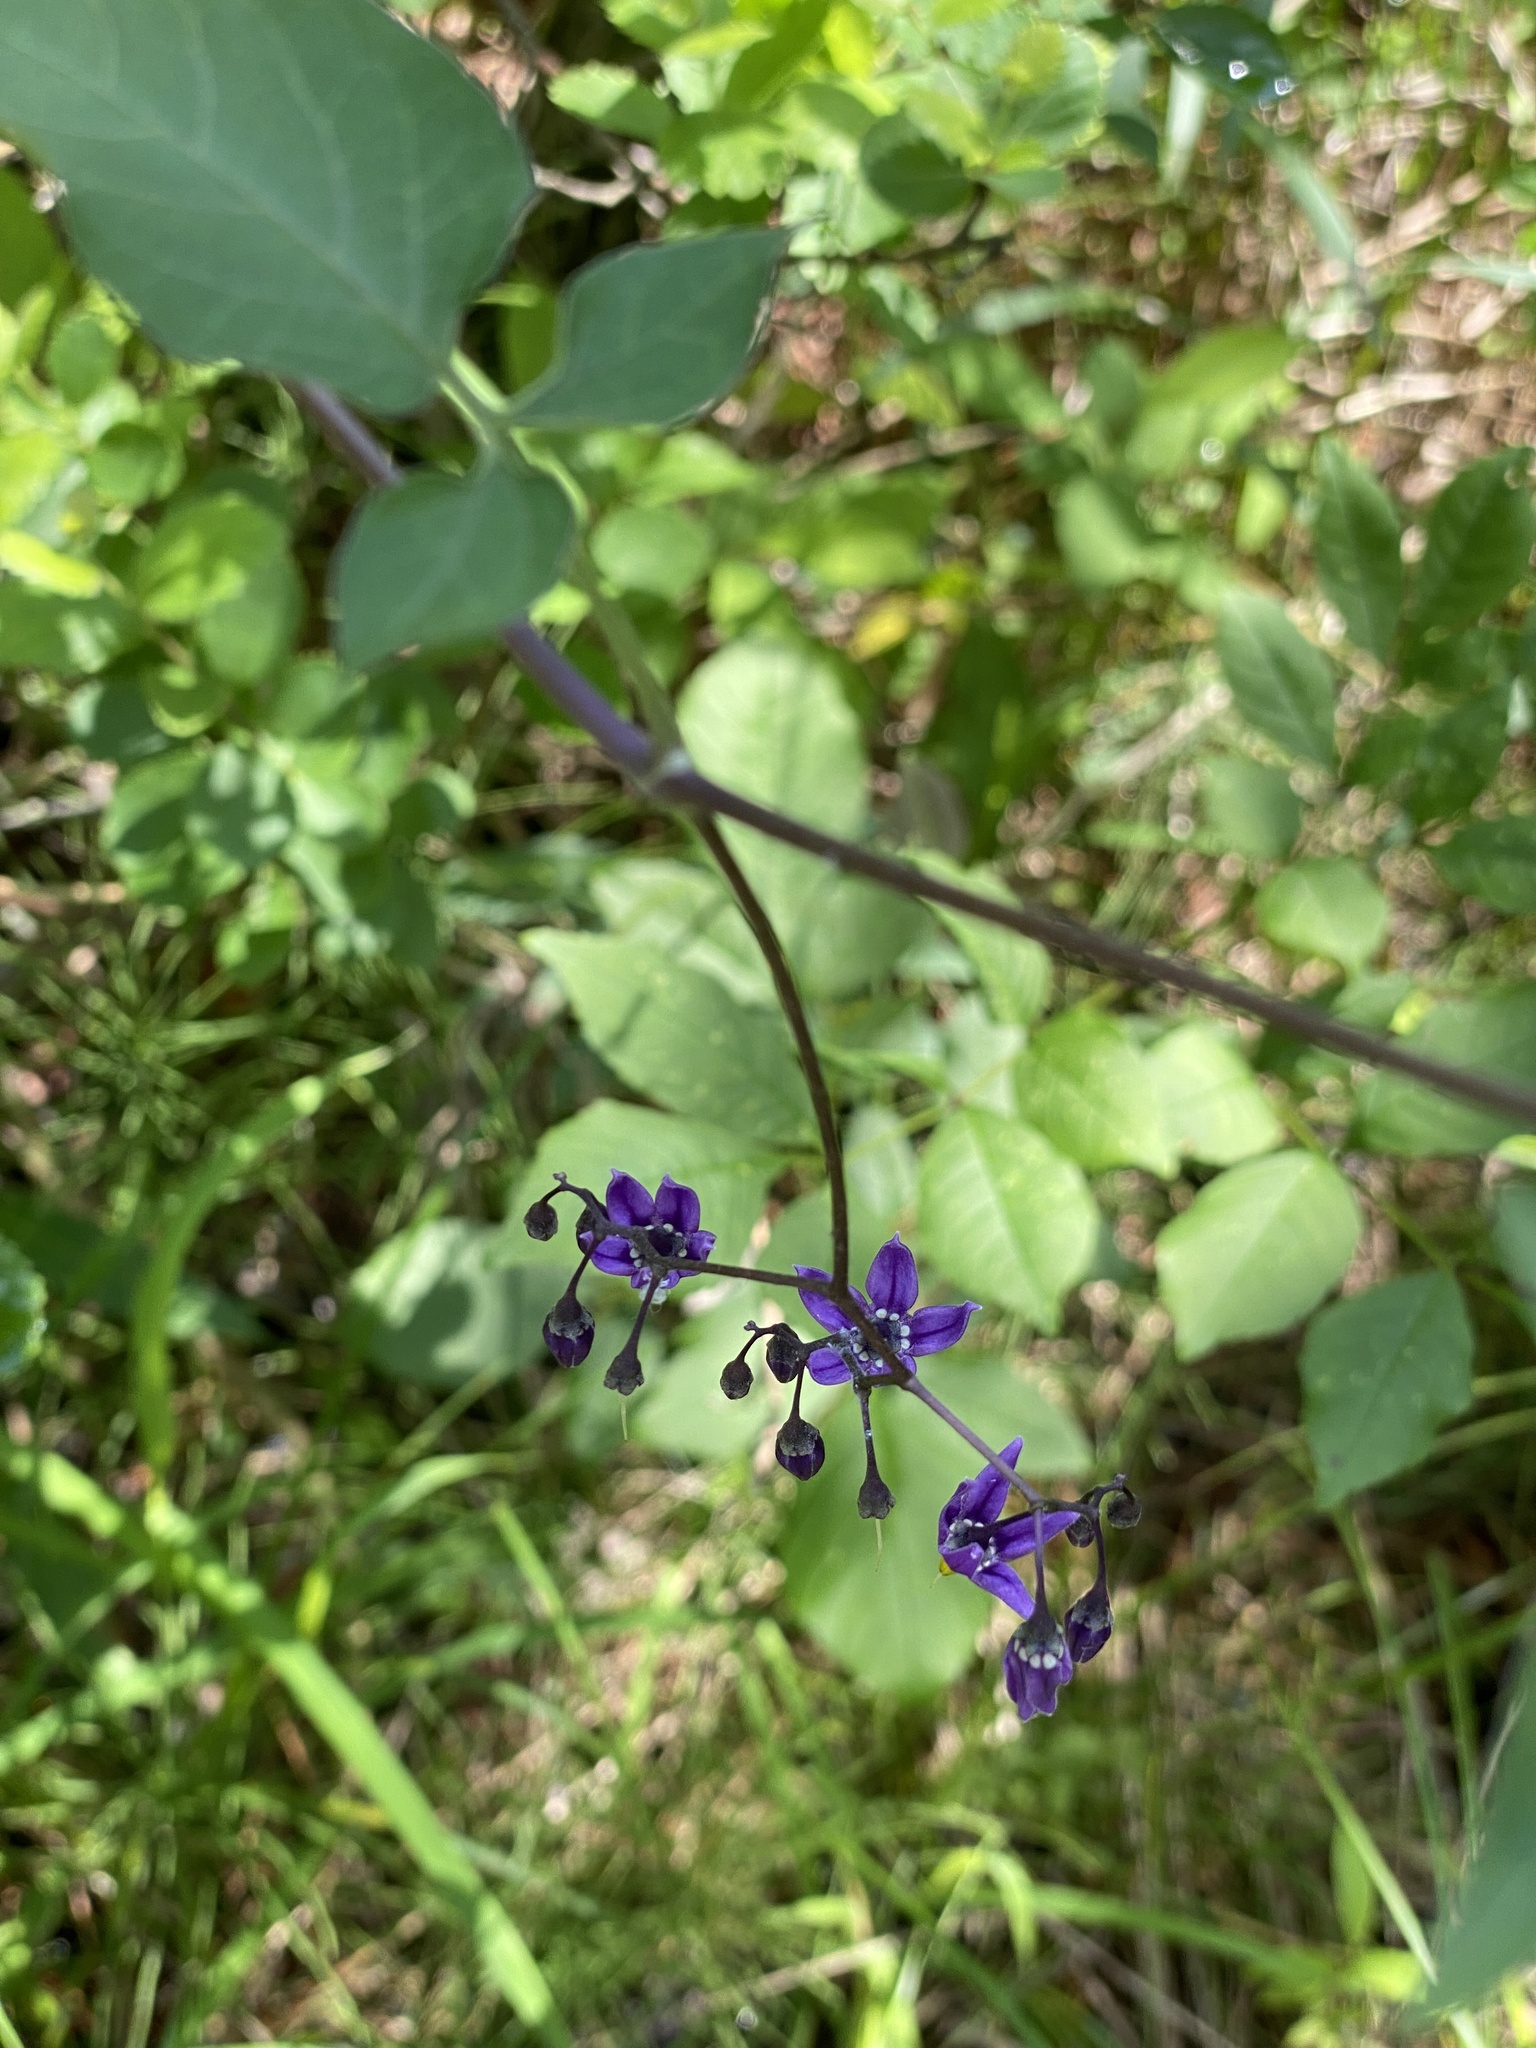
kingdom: Plantae
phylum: Tracheophyta
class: Magnoliopsida
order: Solanales
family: Solanaceae
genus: Solanum
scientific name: Solanum dulcamara
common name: Climbing nightshade
